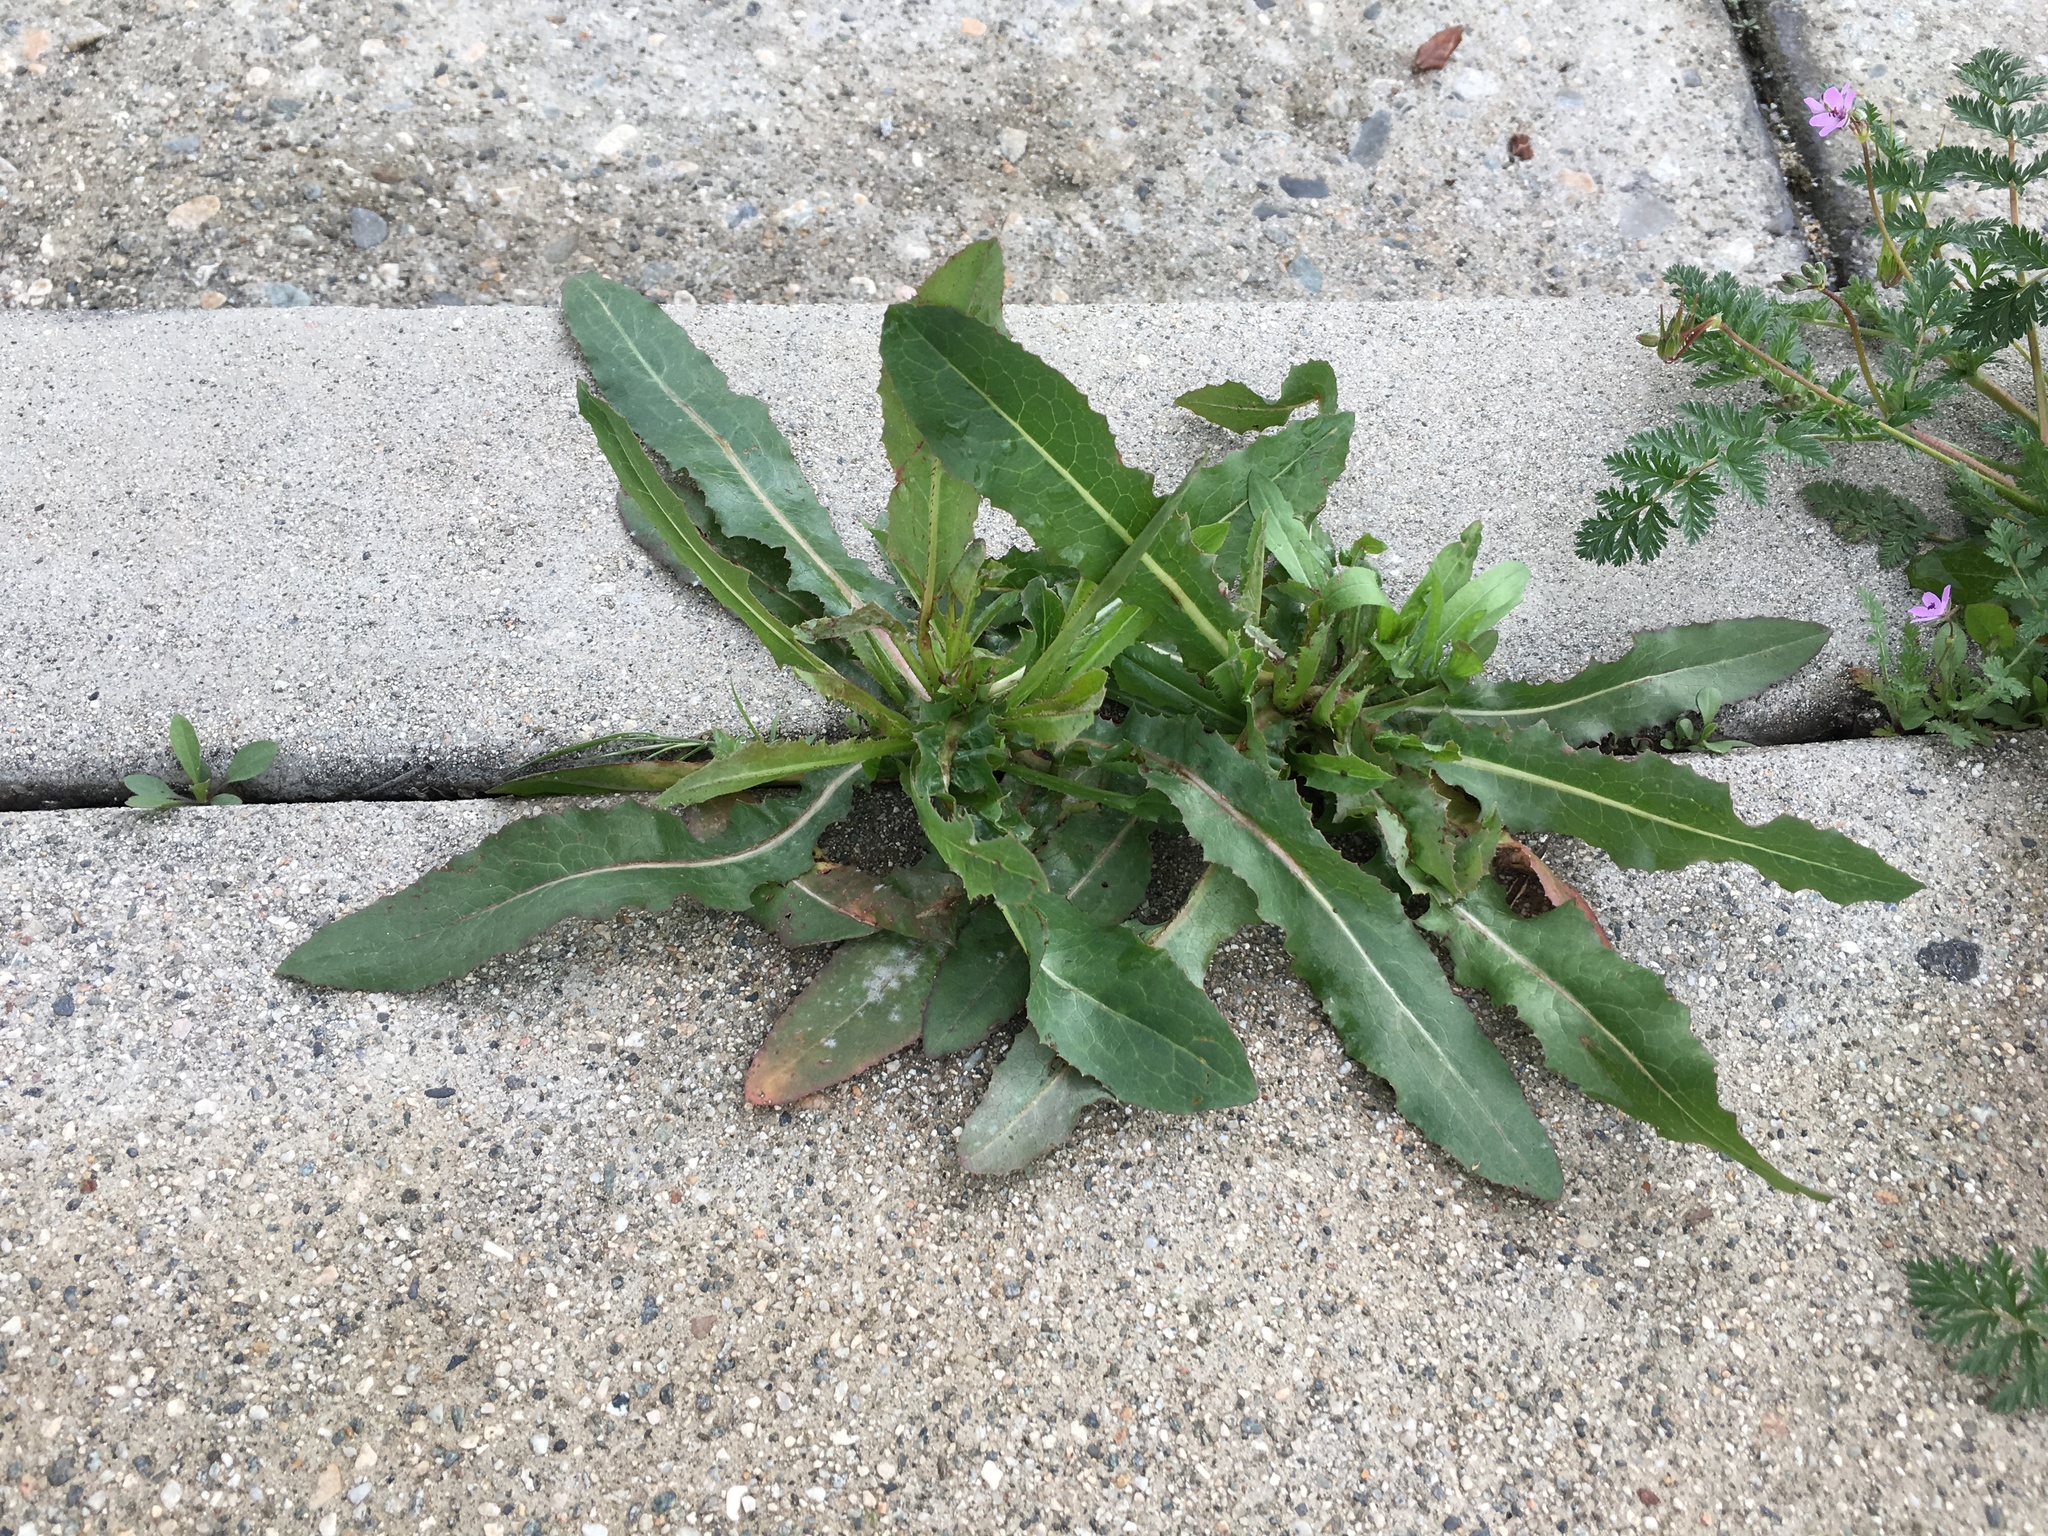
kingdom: Plantae
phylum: Tracheophyta
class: Magnoliopsida
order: Asterales
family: Asteraceae
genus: Lactuca
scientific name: Lactuca serriola
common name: Prickly lettuce
